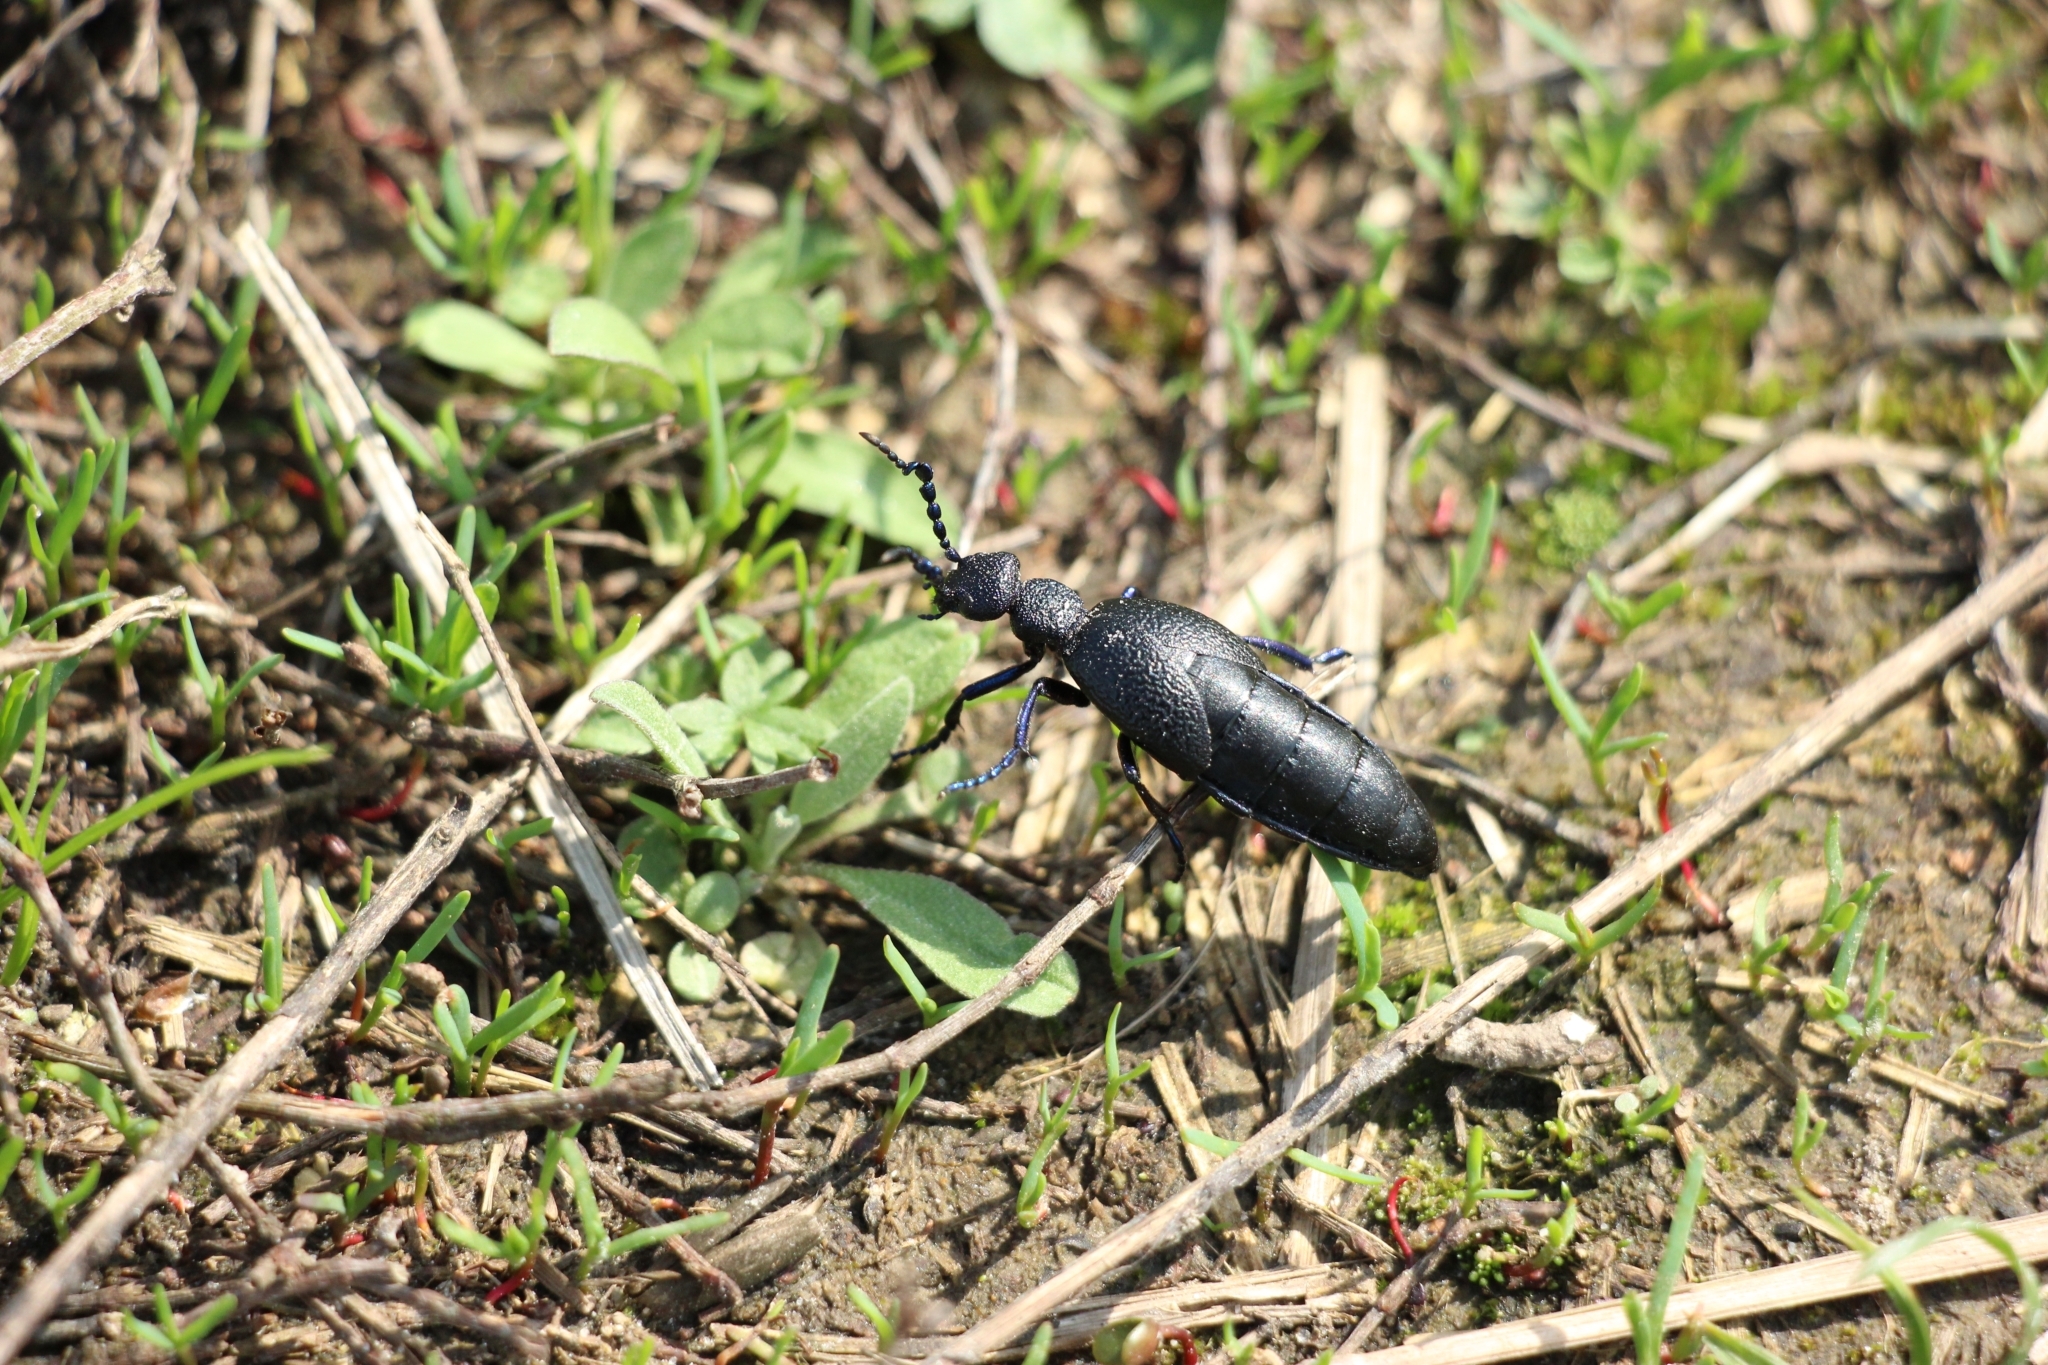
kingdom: Animalia
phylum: Arthropoda
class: Insecta
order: Coleoptera
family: Meloidae
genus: Meloe
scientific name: Meloe proscarabaeus
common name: Black oil-beetle
